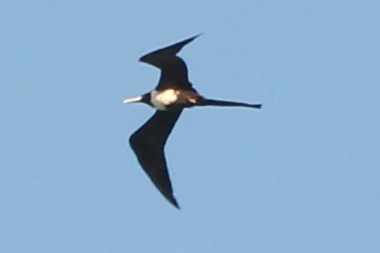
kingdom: Animalia
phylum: Chordata
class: Aves
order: Suliformes
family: Fregatidae
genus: Fregata
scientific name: Fregata magnificens
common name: Magnificent frigatebird
